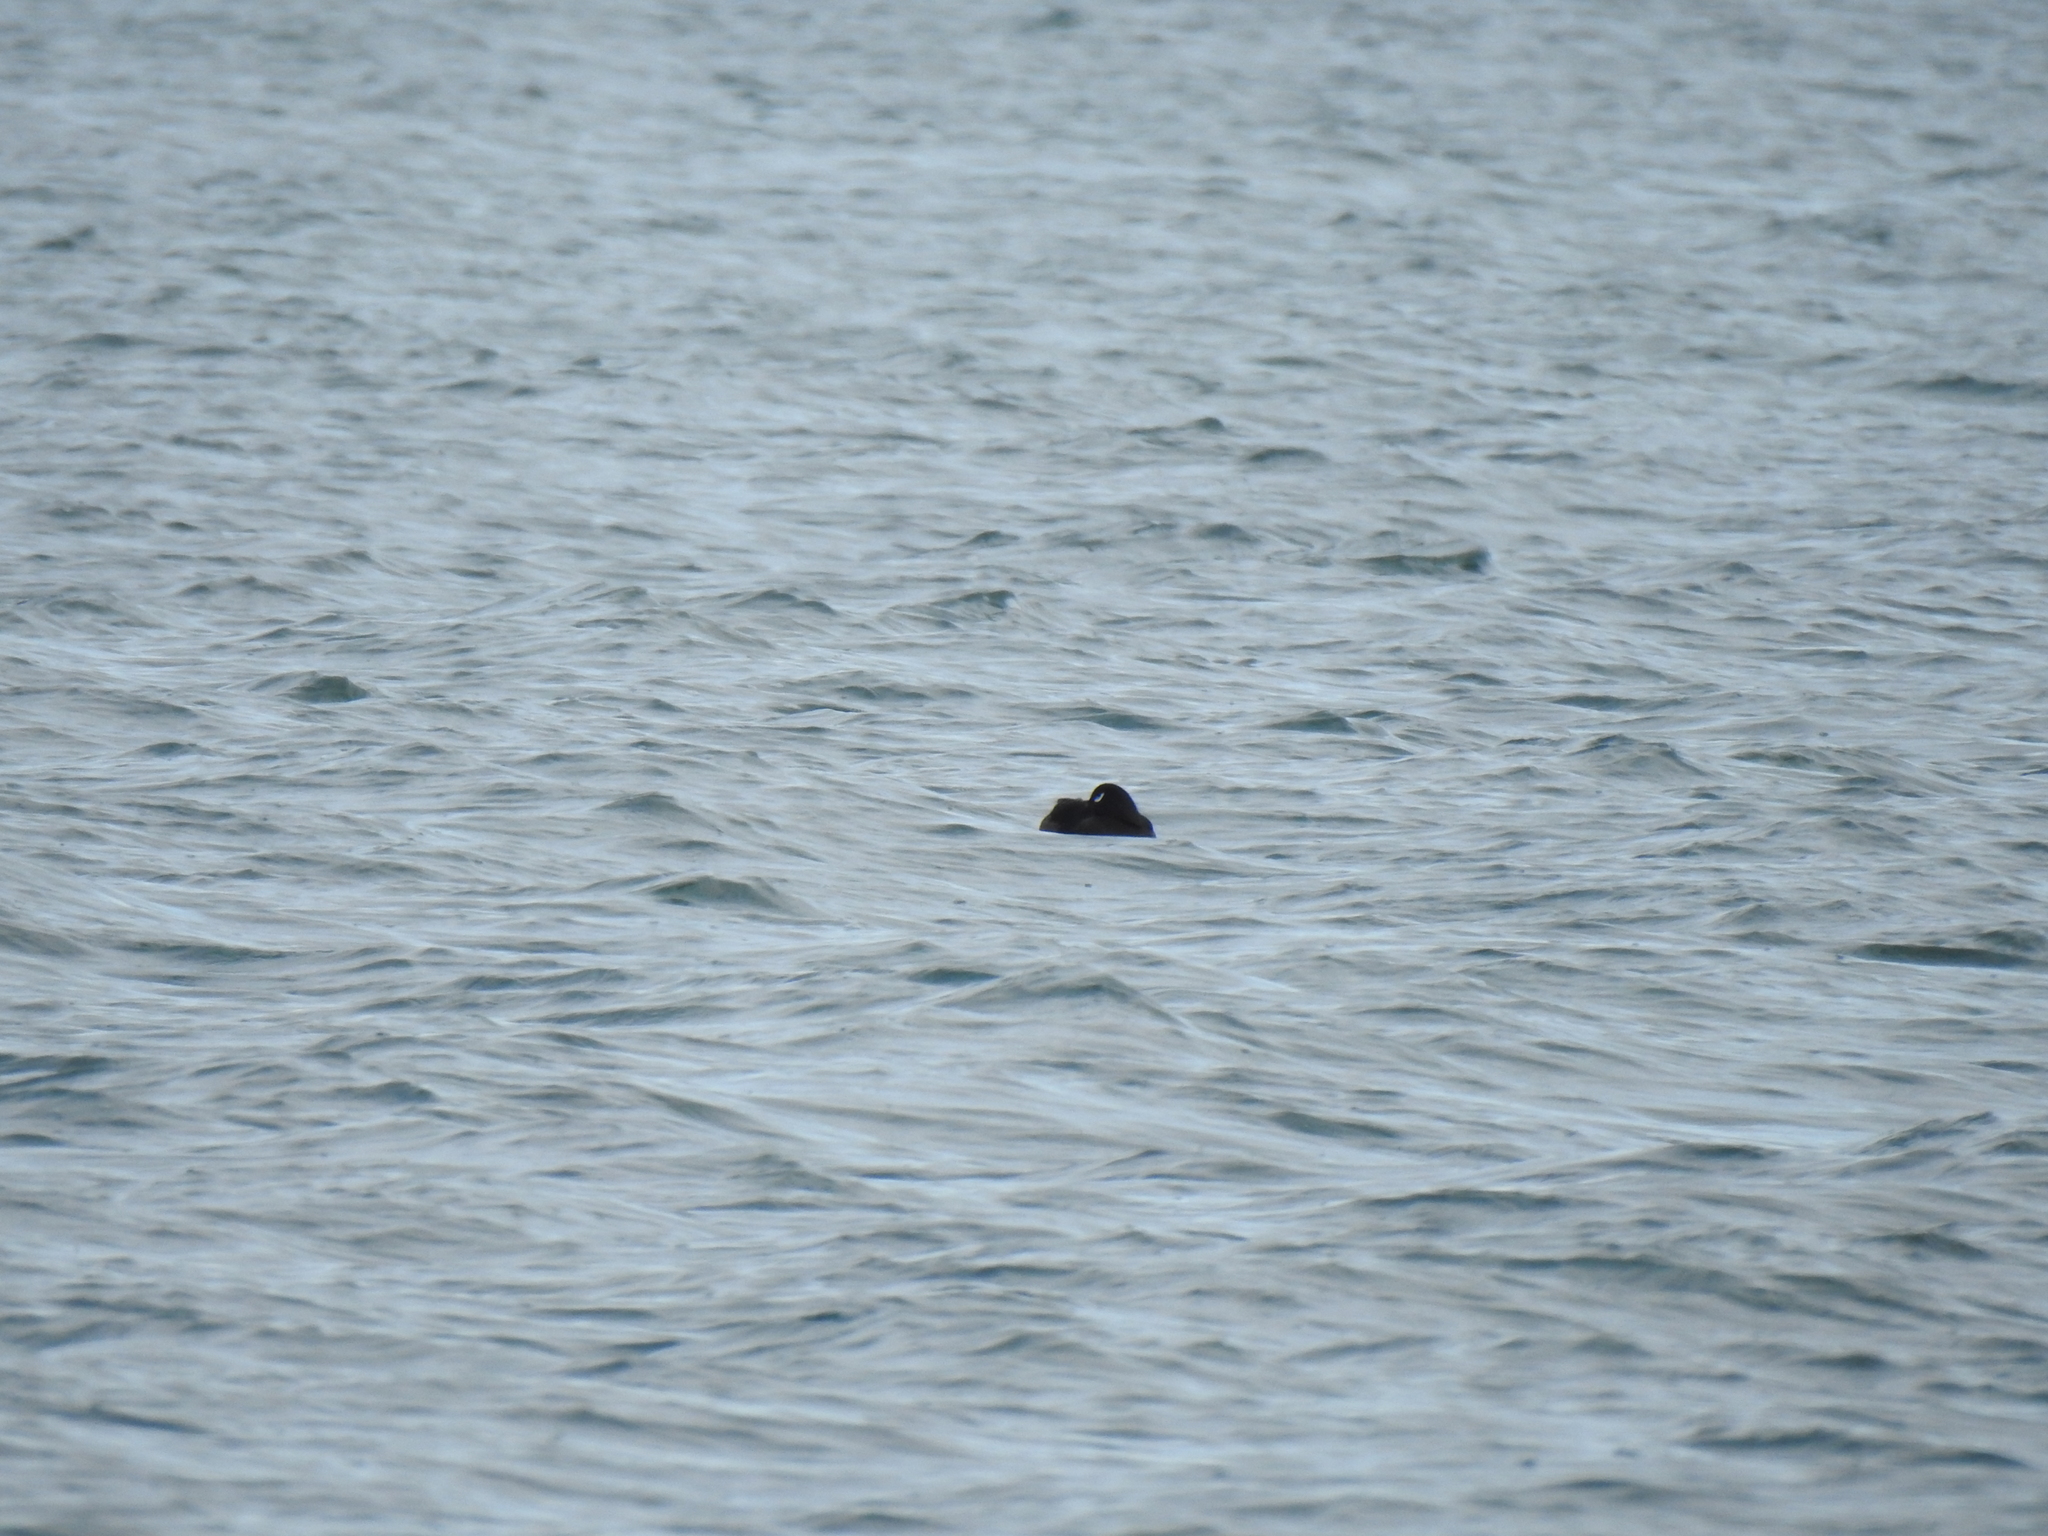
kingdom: Animalia
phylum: Chordata
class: Aves
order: Anseriformes
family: Anatidae
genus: Melanitta
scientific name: Melanitta deglandi
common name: White-winged scoter
